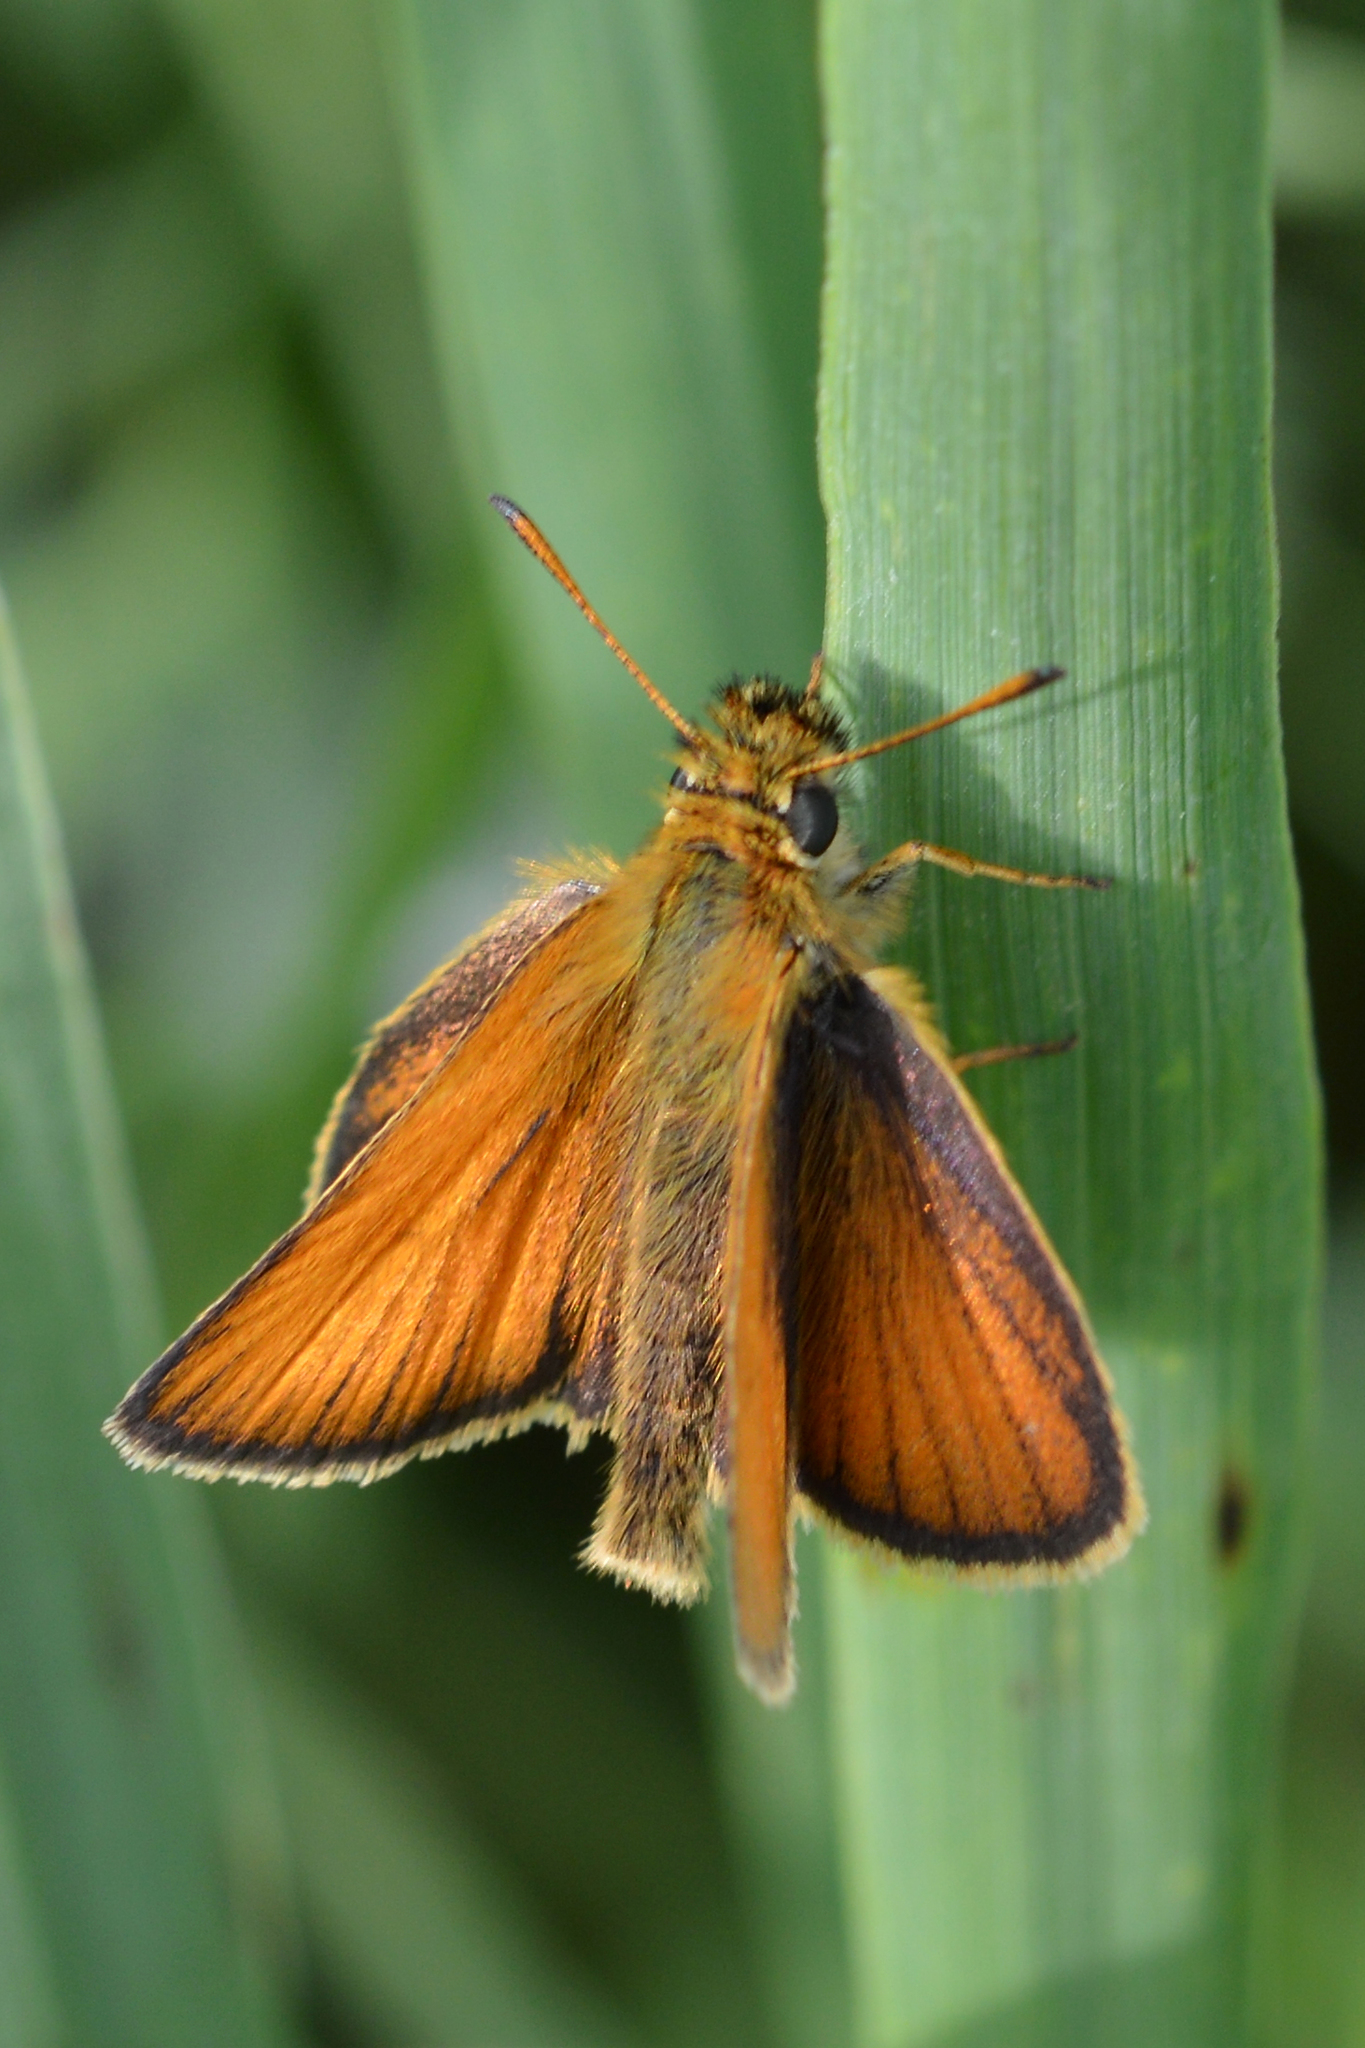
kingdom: Animalia
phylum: Arthropoda
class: Insecta
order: Lepidoptera
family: Hesperiidae
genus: Thymelicus
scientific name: Thymelicus lineola
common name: Essex skipper
